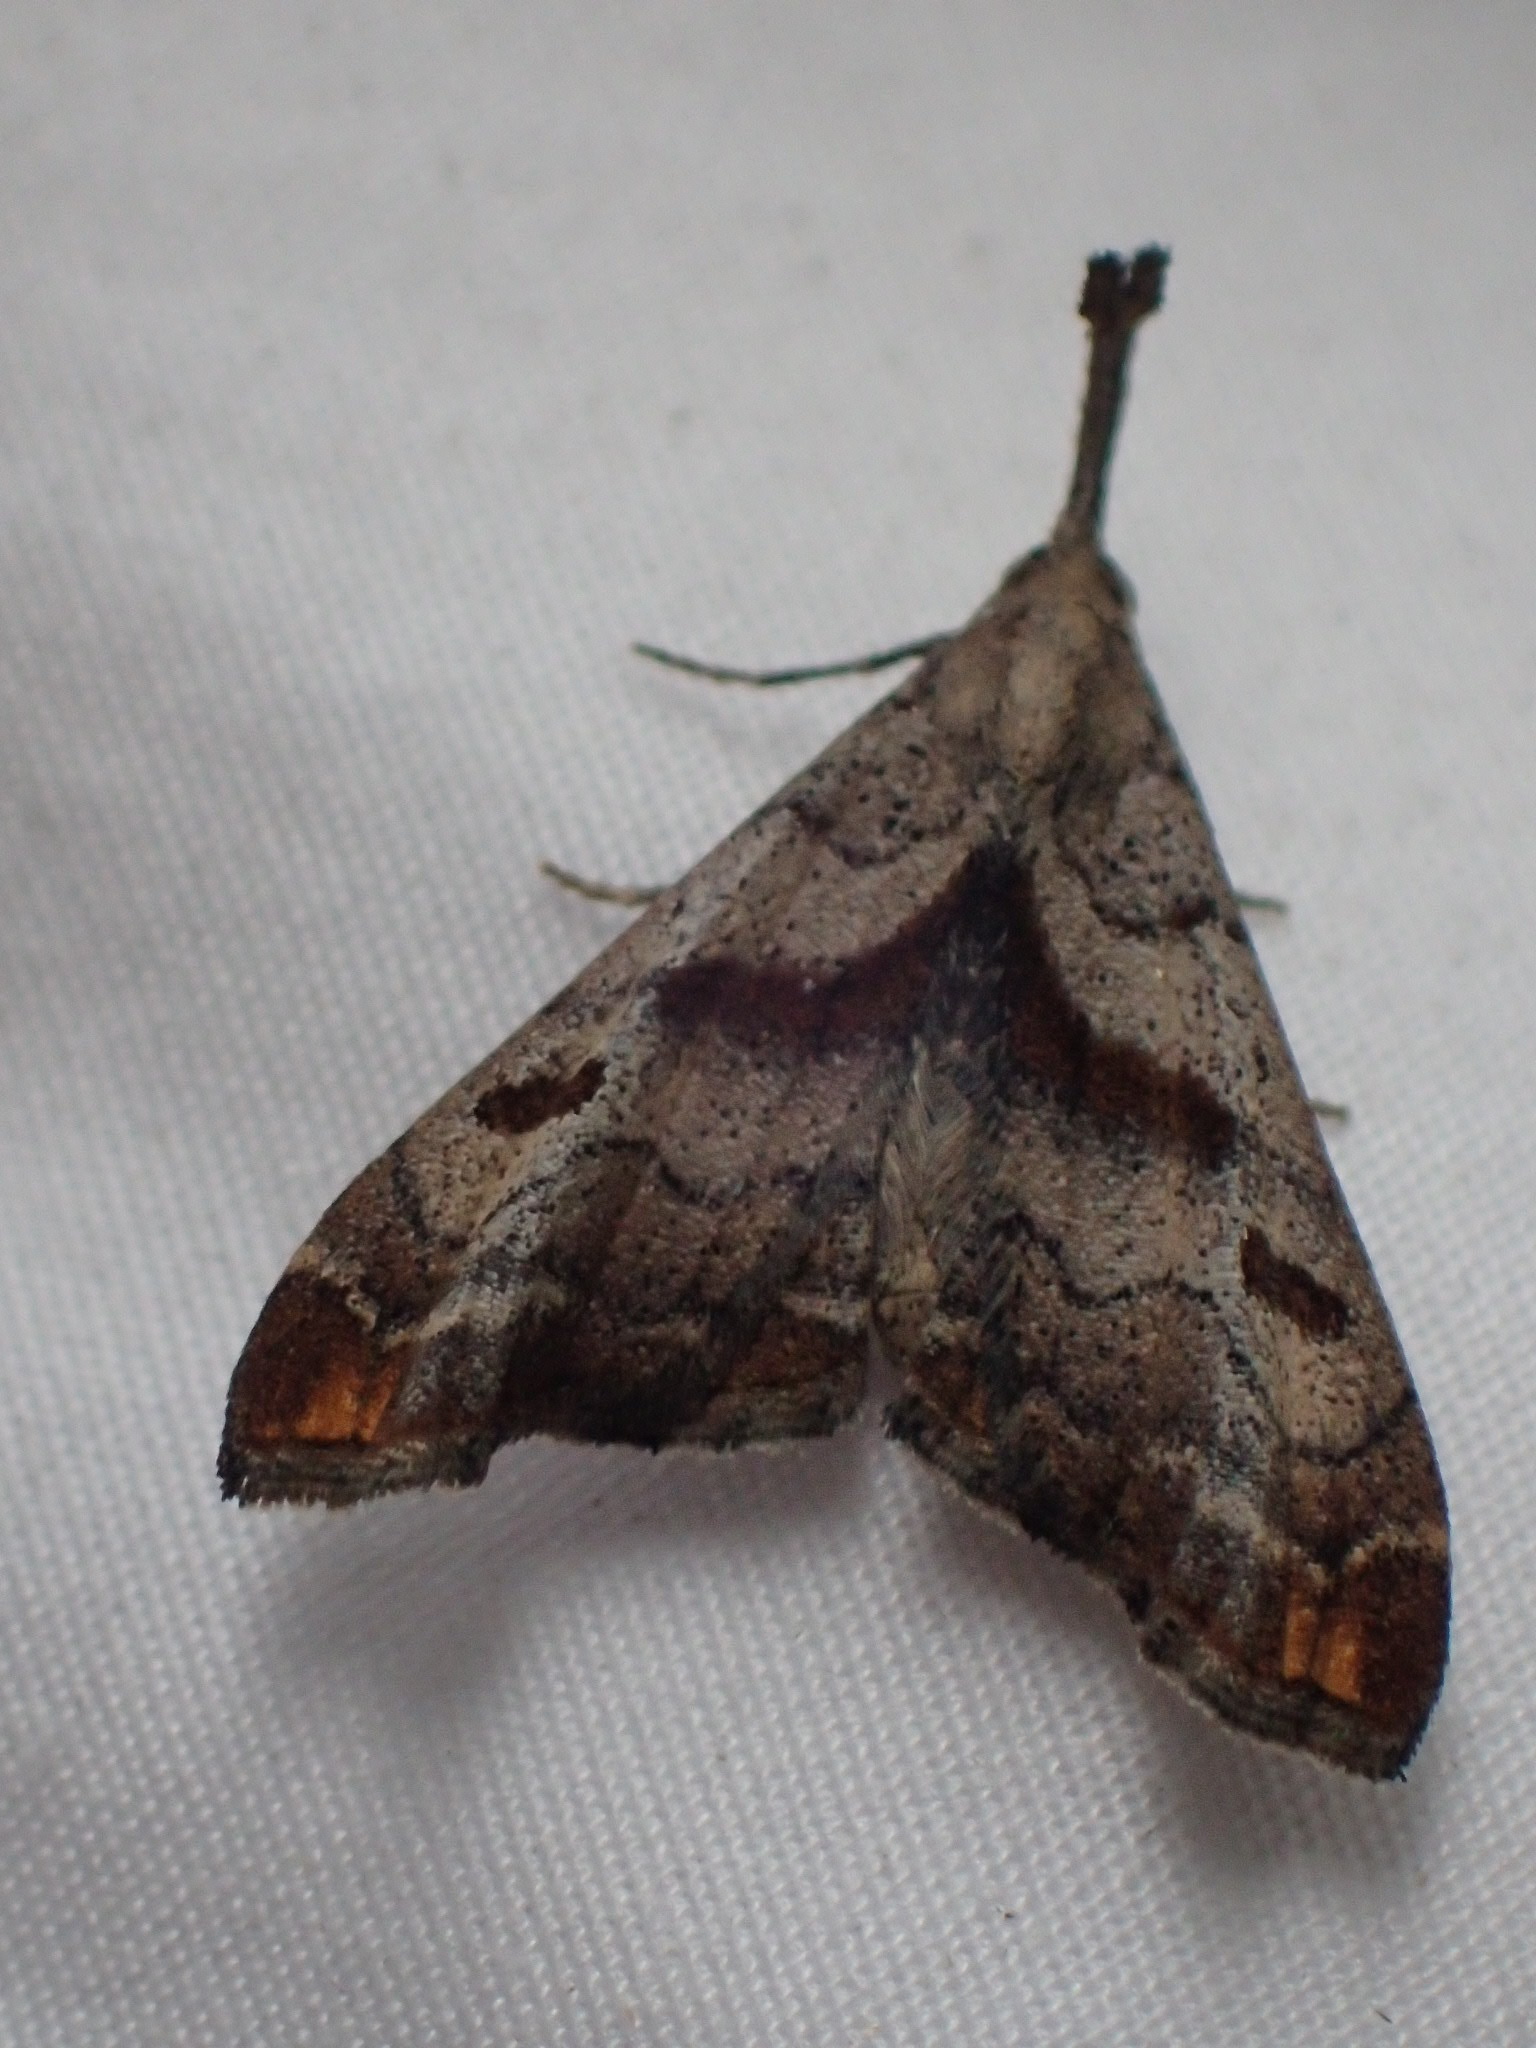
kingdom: Animalia
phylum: Arthropoda
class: Insecta
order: Lepidoptera
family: Erebidae
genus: Palthis
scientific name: Palthis angulalis
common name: Dark-spotted palthis moth
